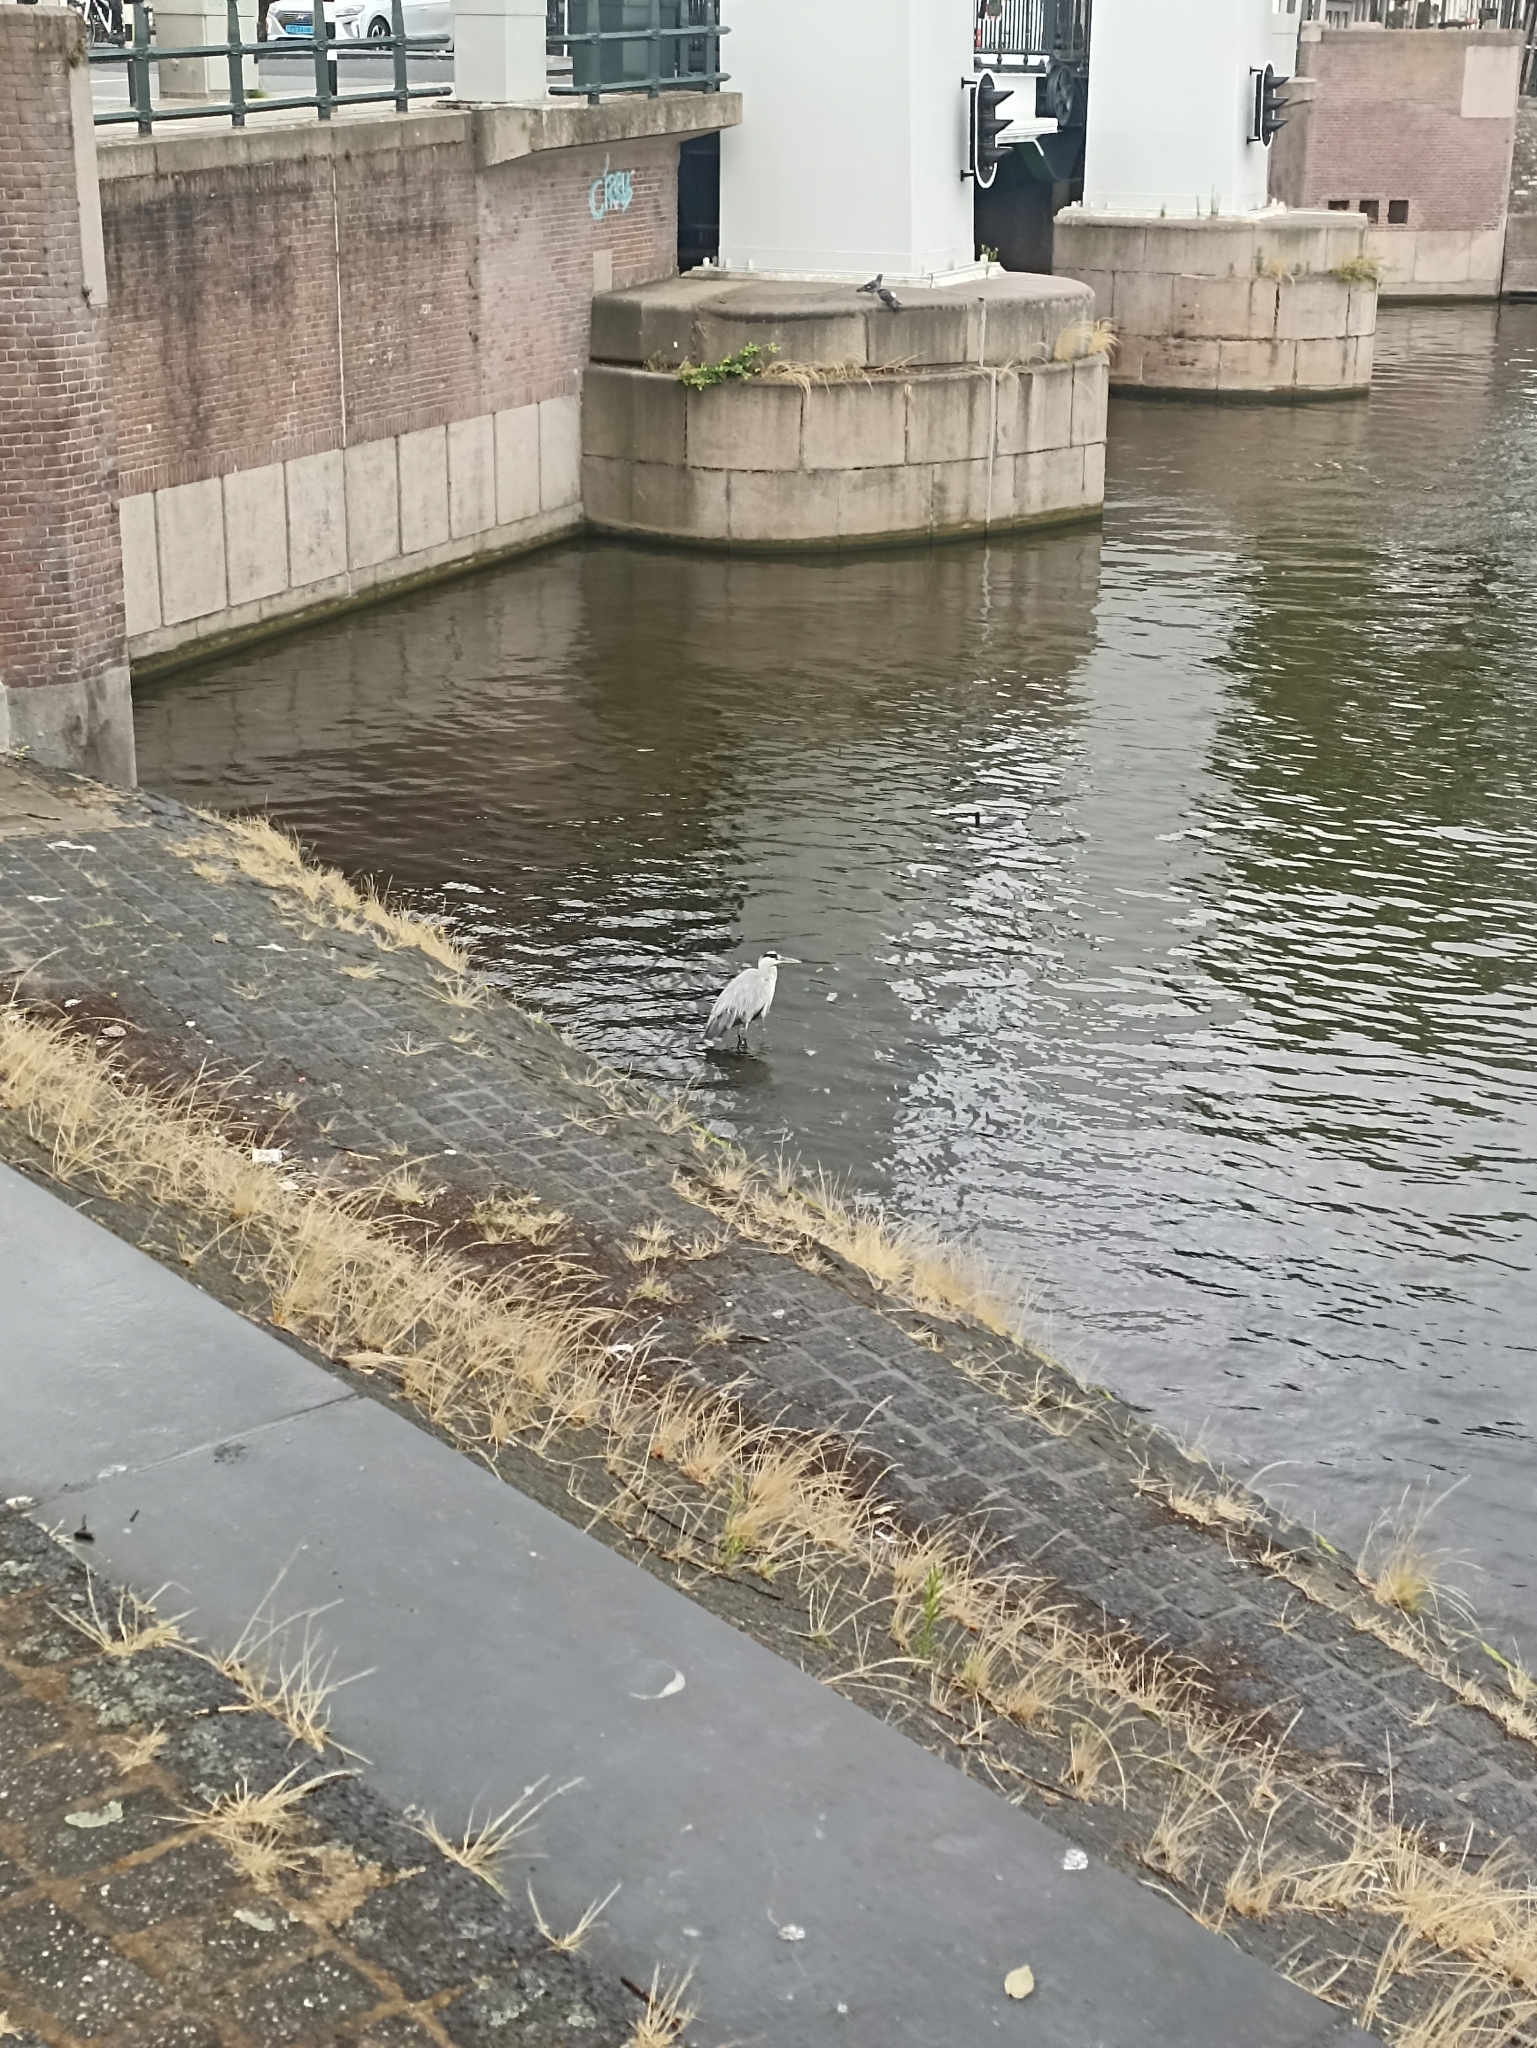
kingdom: Animalia
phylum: Chordata
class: Aves
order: Pelecaniformes
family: Ardeidae
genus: Ardea
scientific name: Ardea cinerea
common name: Grey heron
